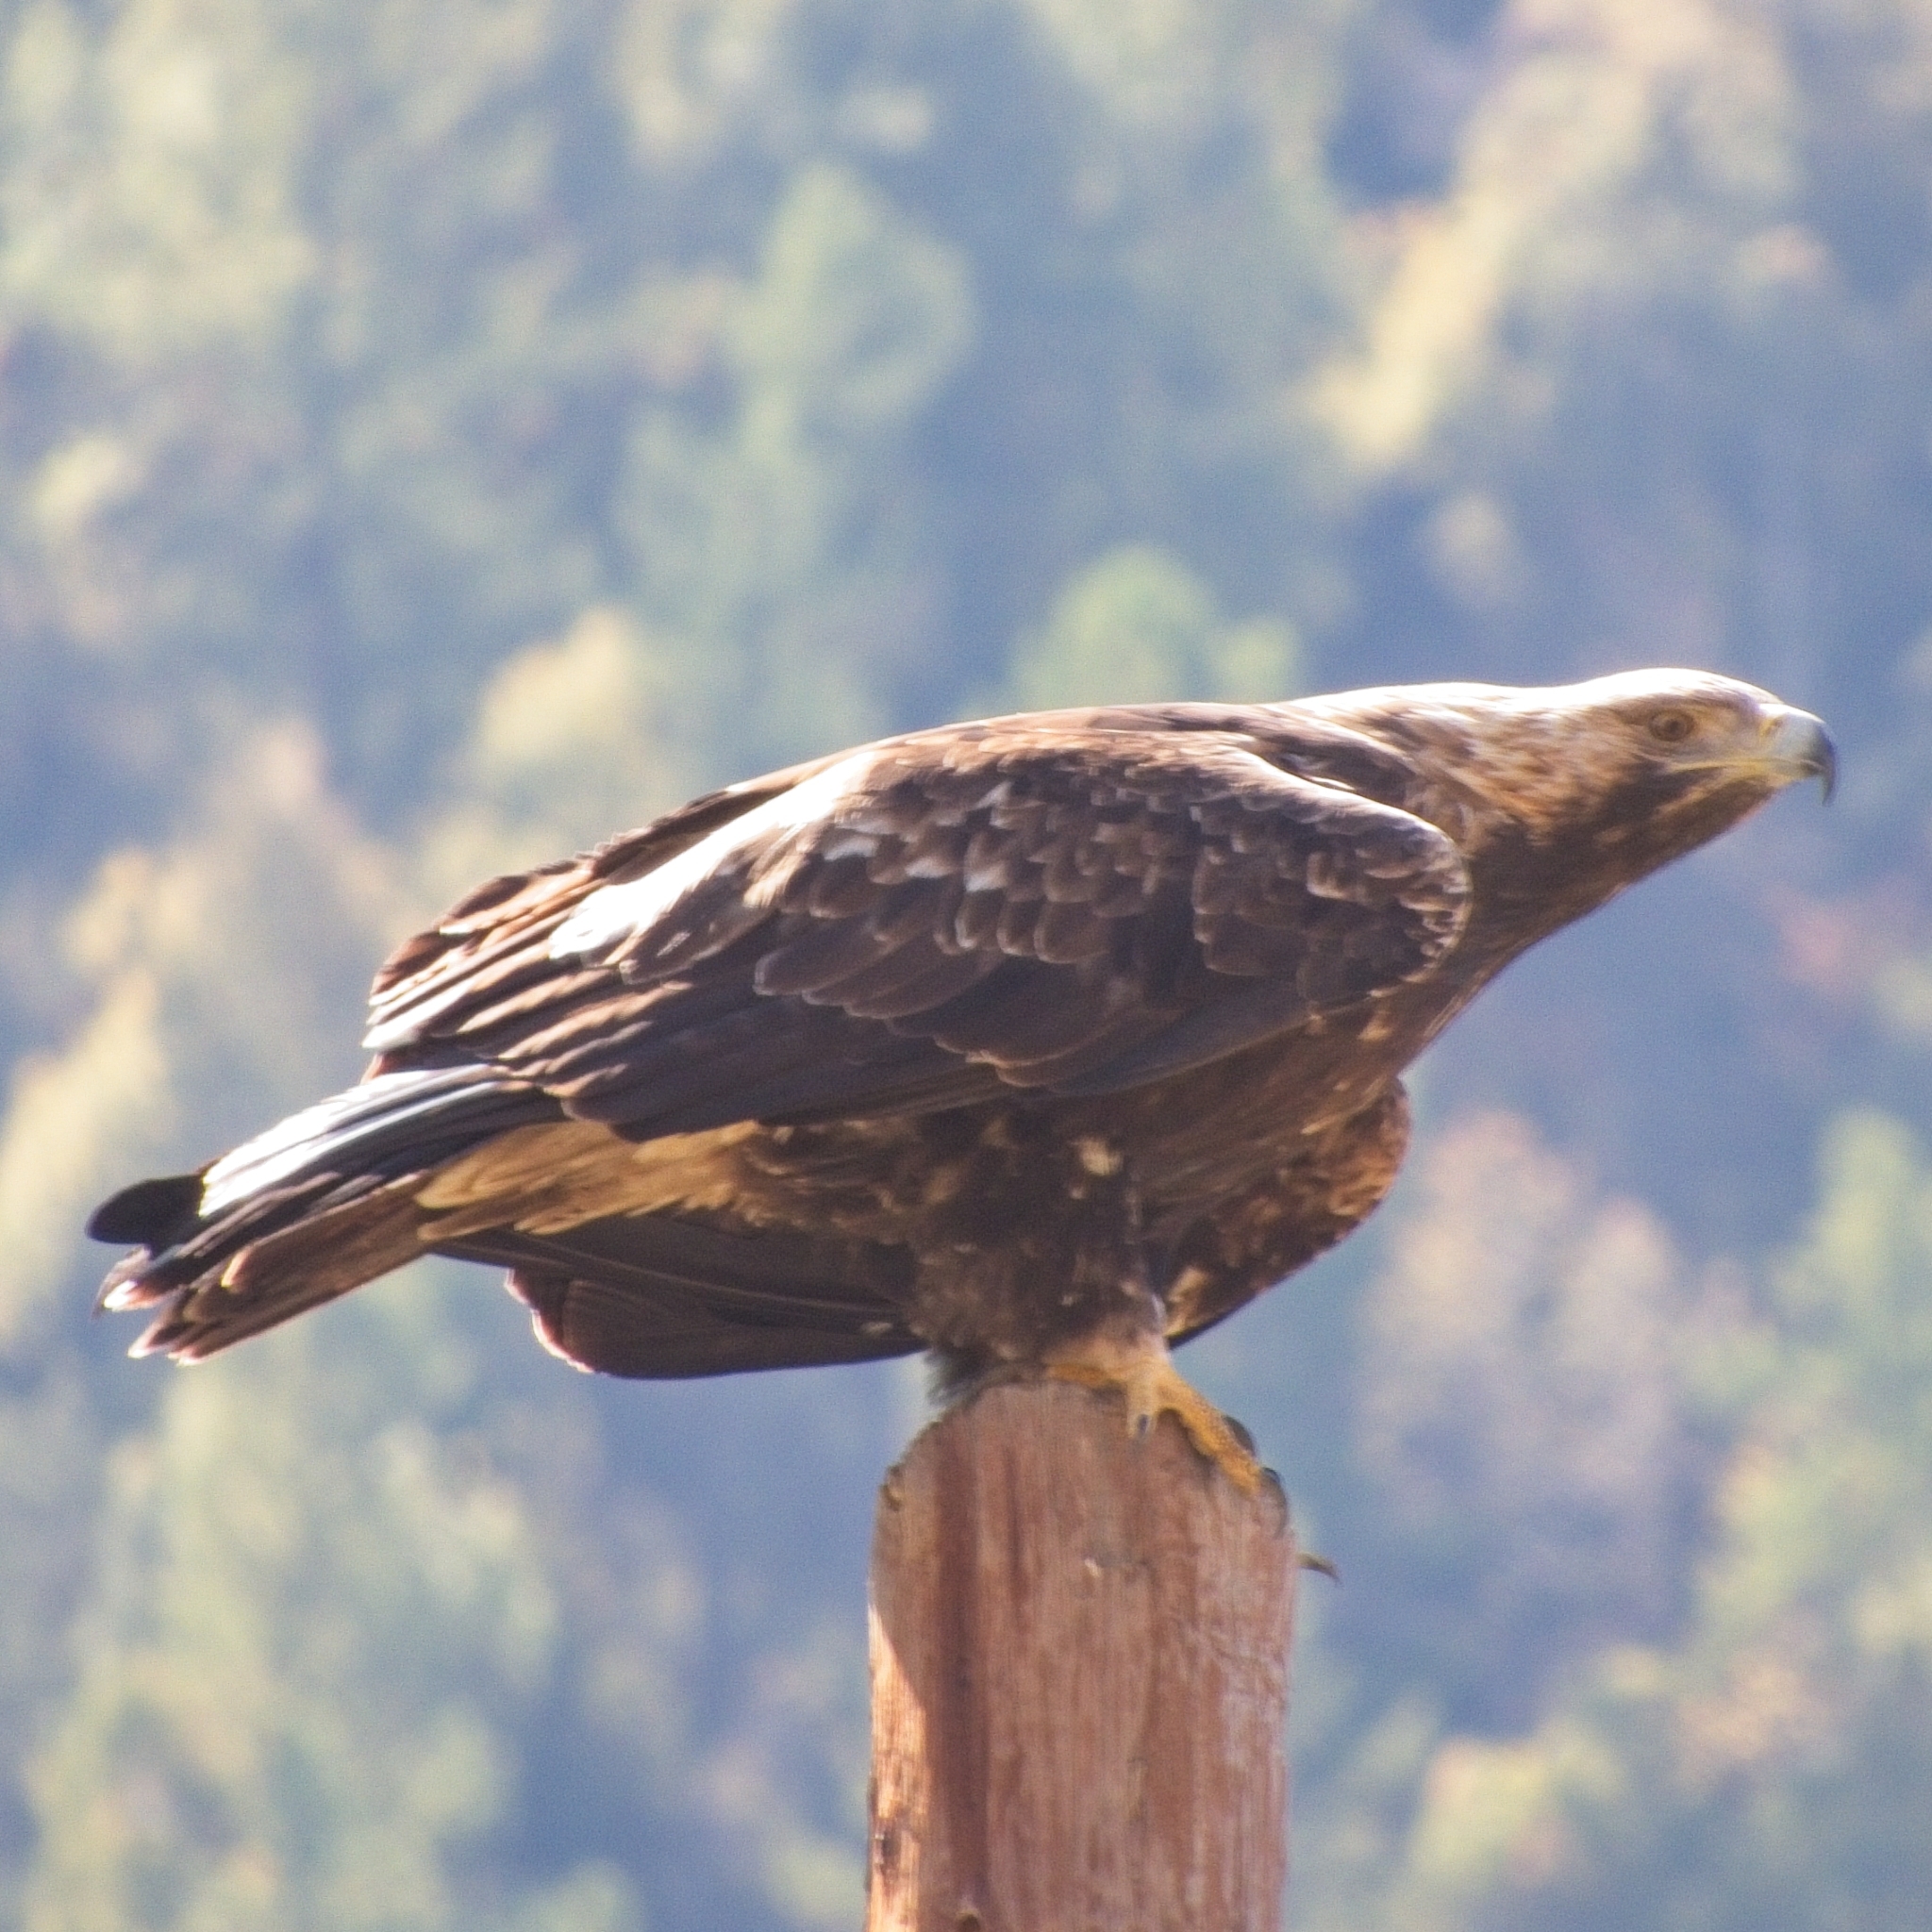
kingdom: Animalia
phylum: Chordata
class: Aves
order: Accipitriformes
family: Accipitridae
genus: Aquila
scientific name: Aquila heliaca
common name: Eastern imperial eagle
